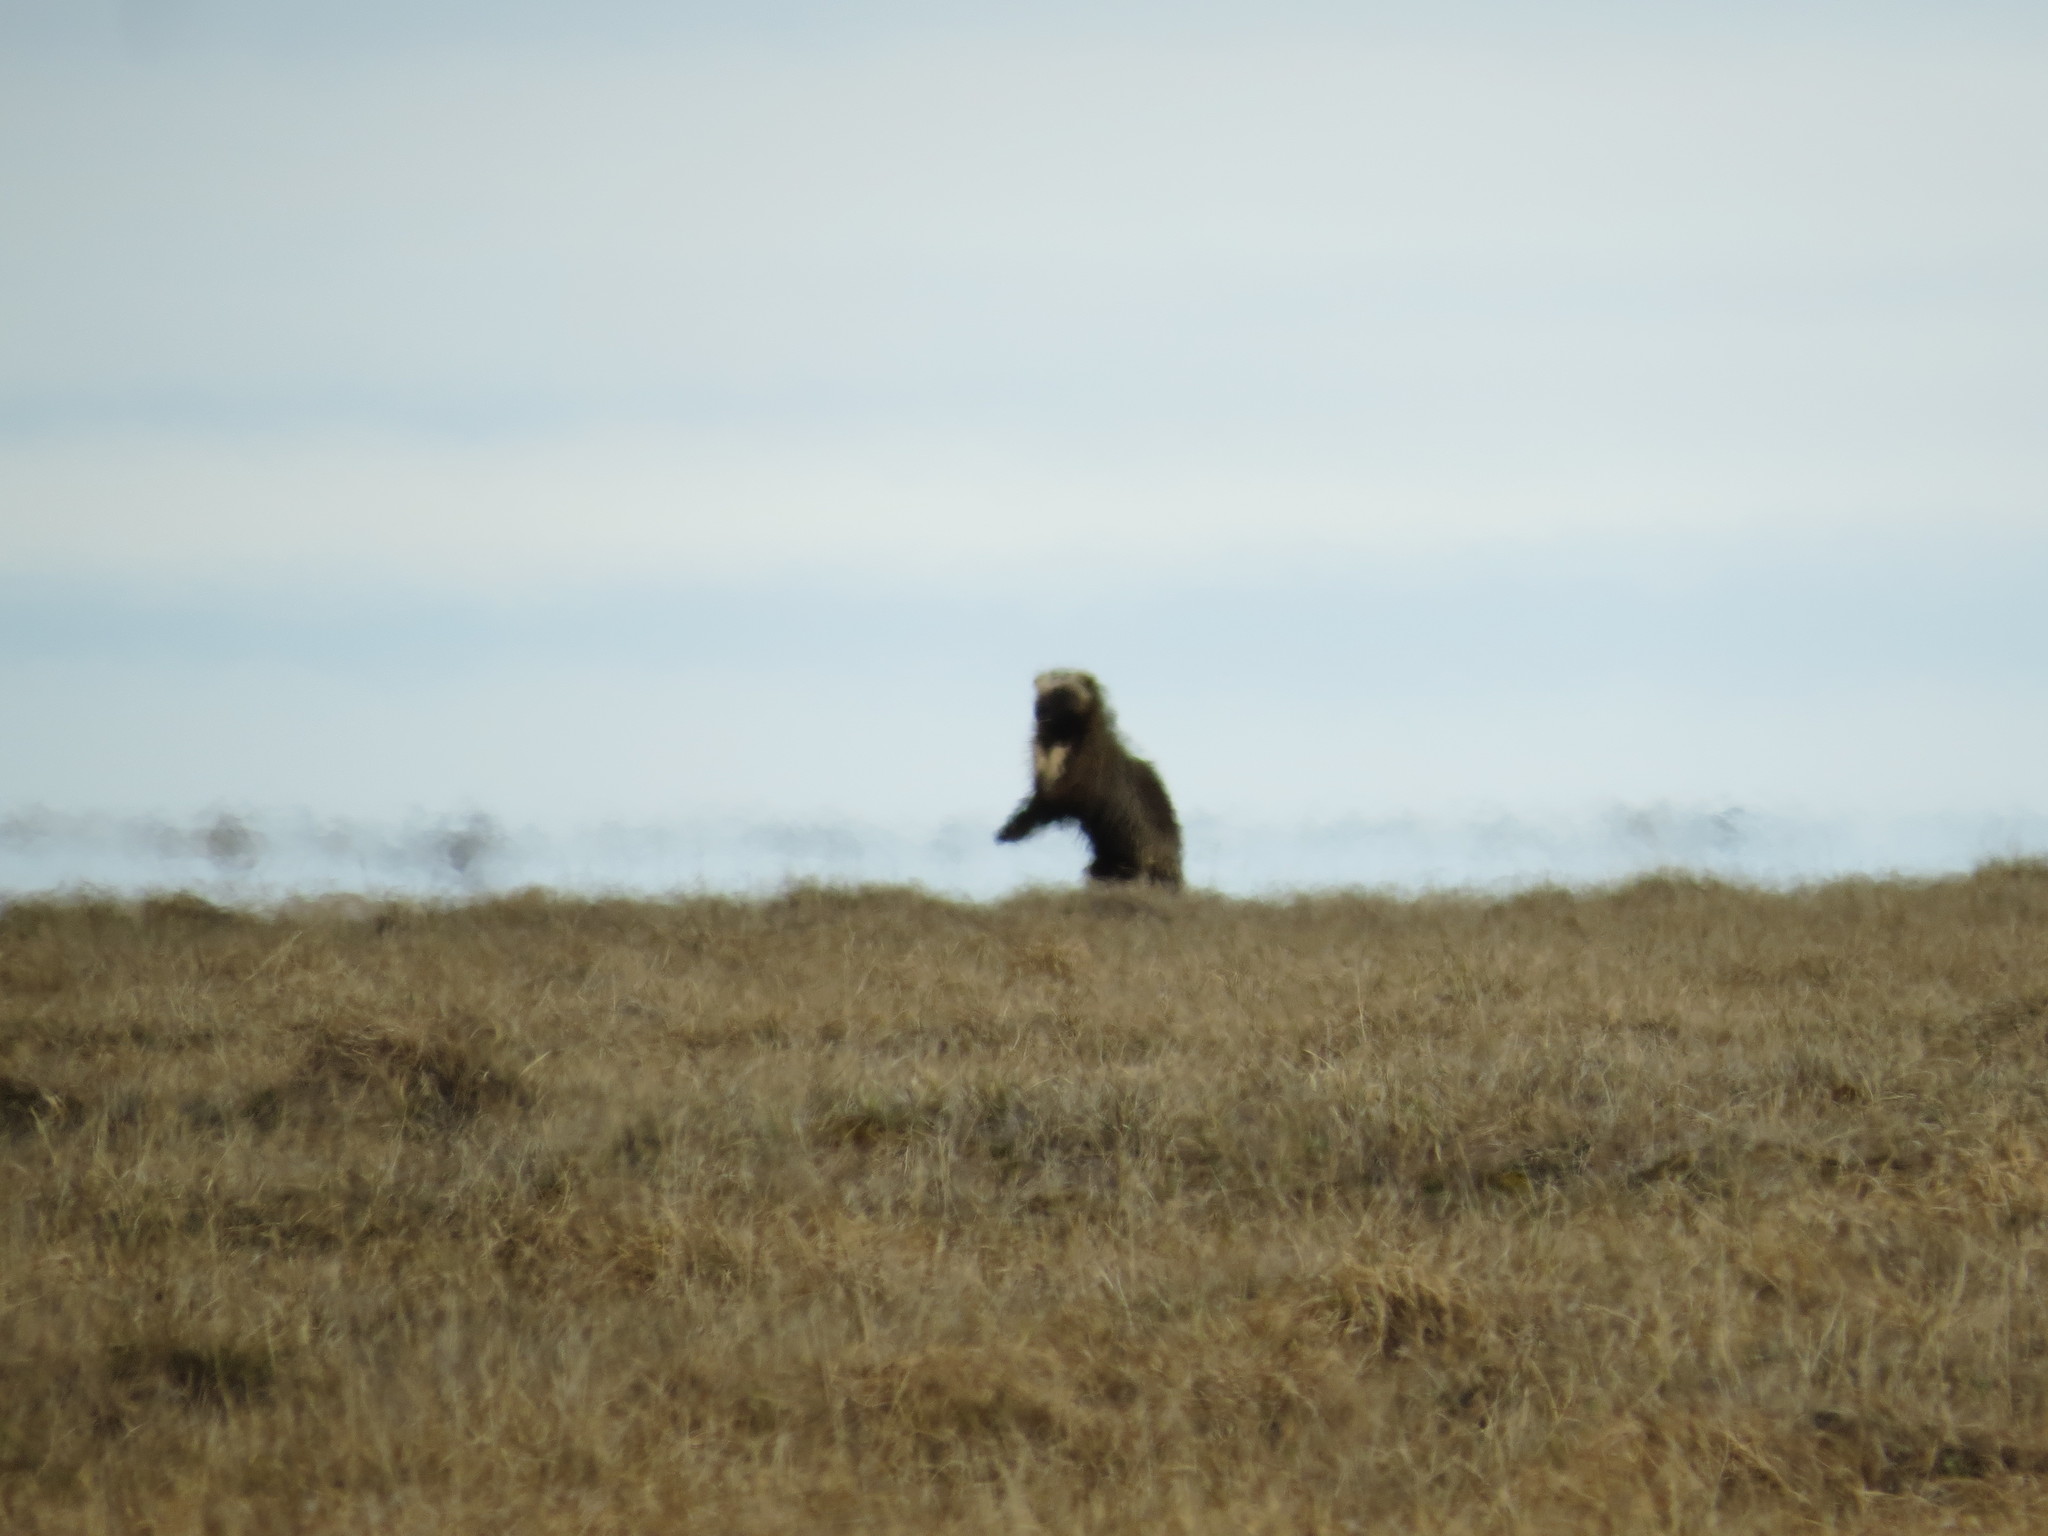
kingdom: Animalia
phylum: Chordata
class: Mammalia
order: Carnivora
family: Mustelidae
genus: Gulo
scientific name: Gulo gulo
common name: Wolverine
